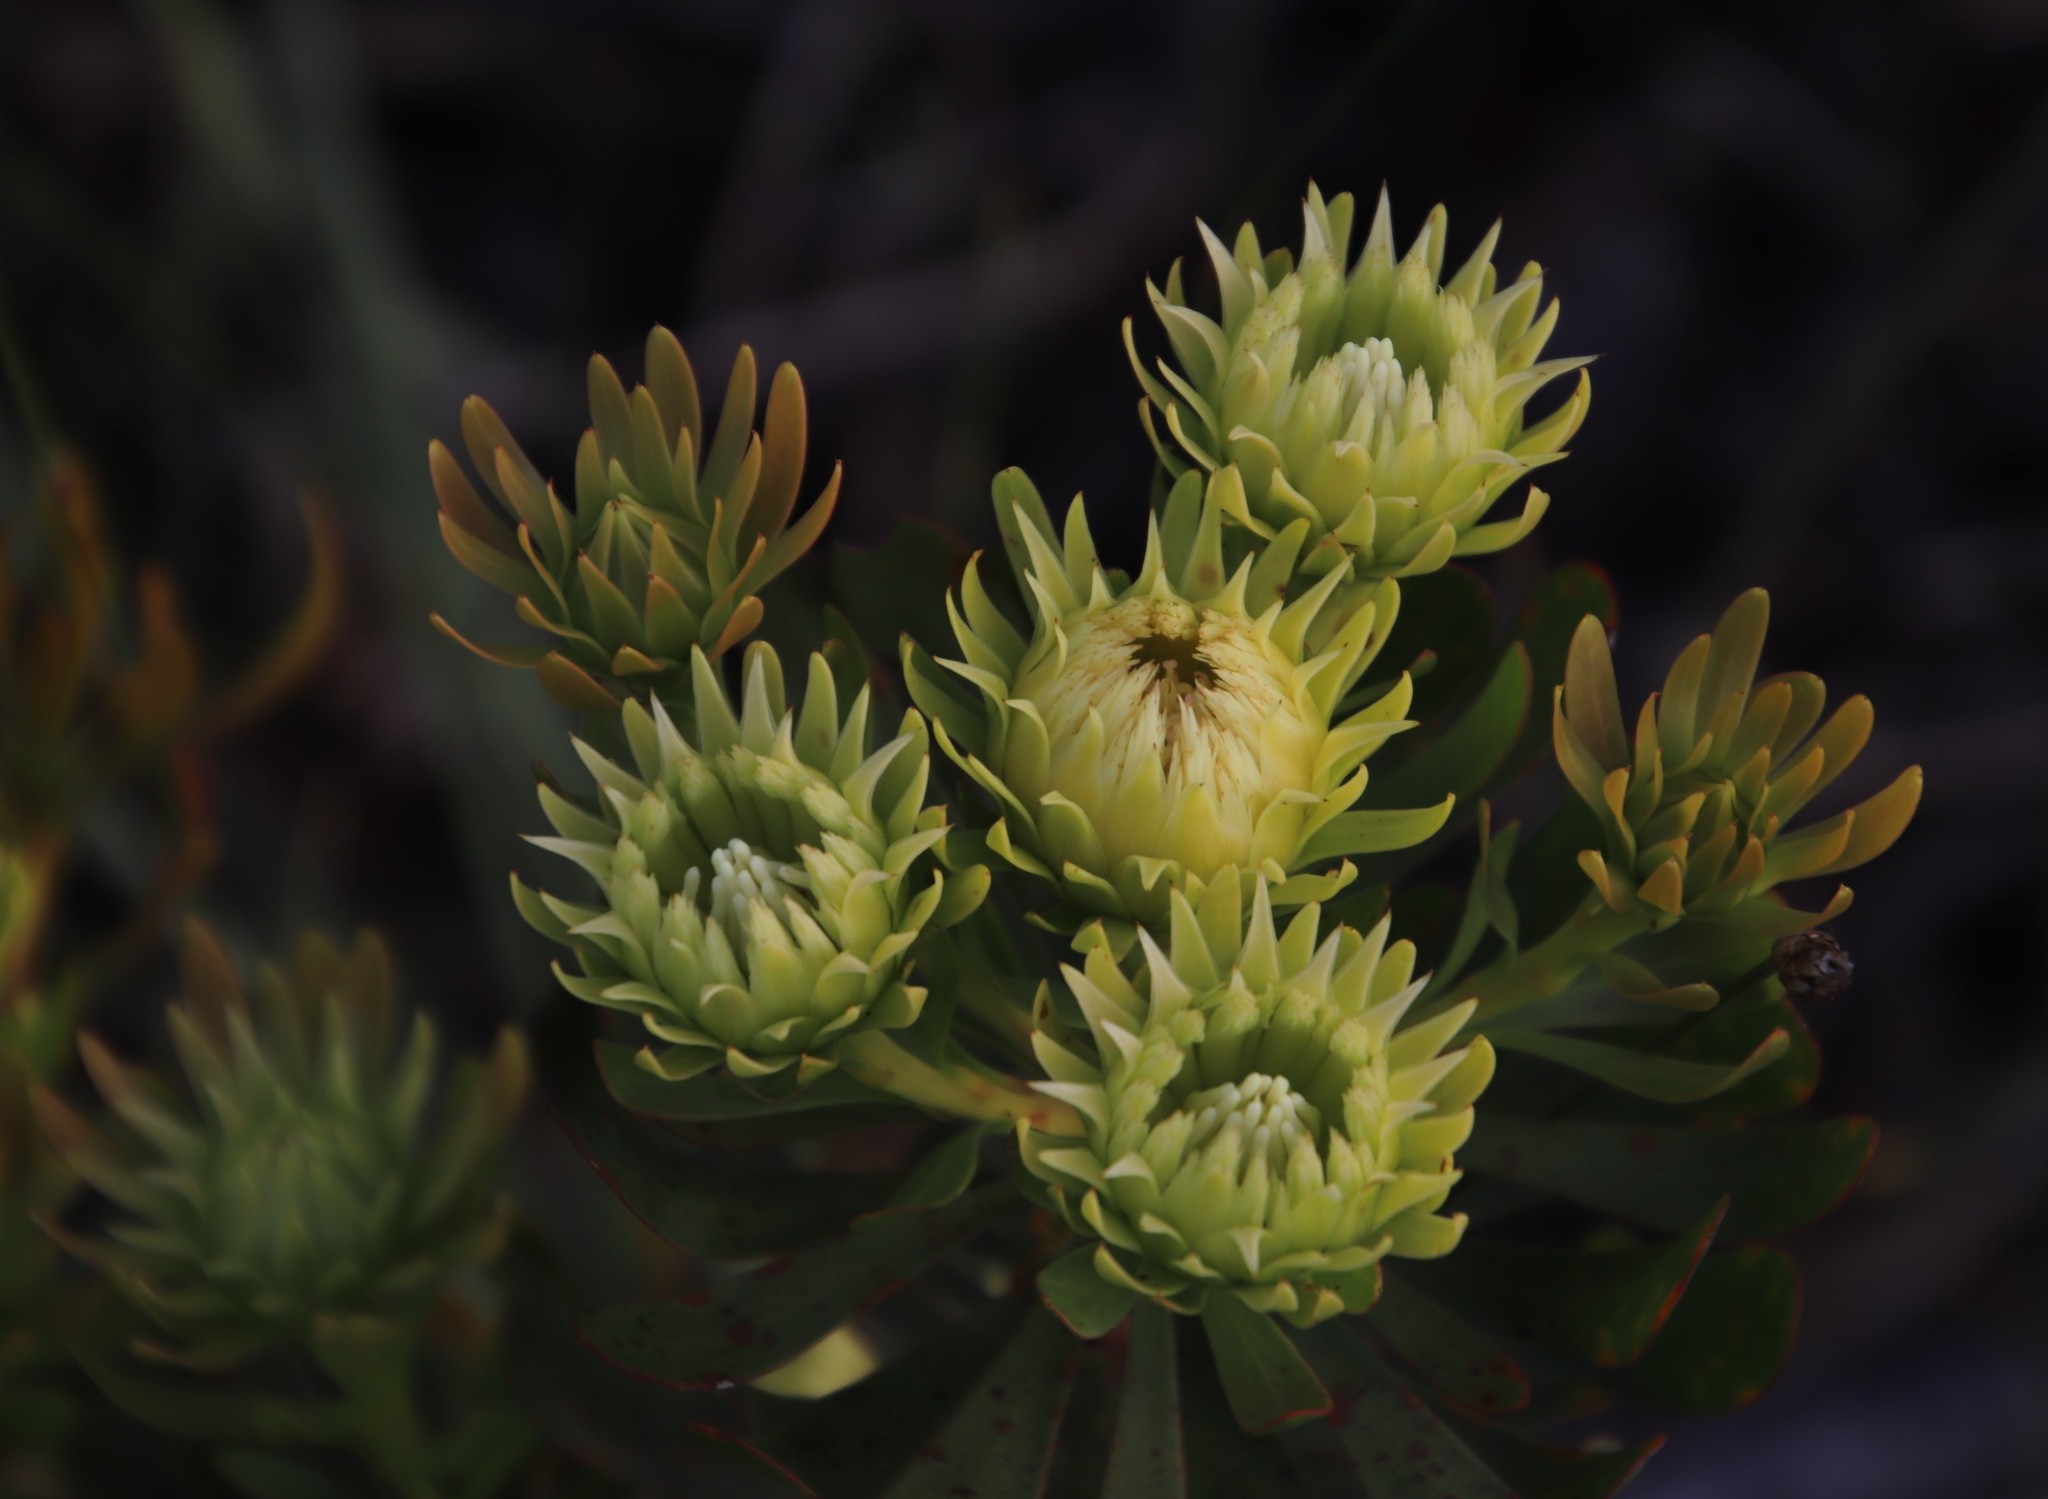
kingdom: Plantae
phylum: Tracheophyta
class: Magnoliopsida
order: Proteales
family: Proteaceae
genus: Aulax
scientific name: Aulax umbellata
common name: Broad-leaf featherbush
